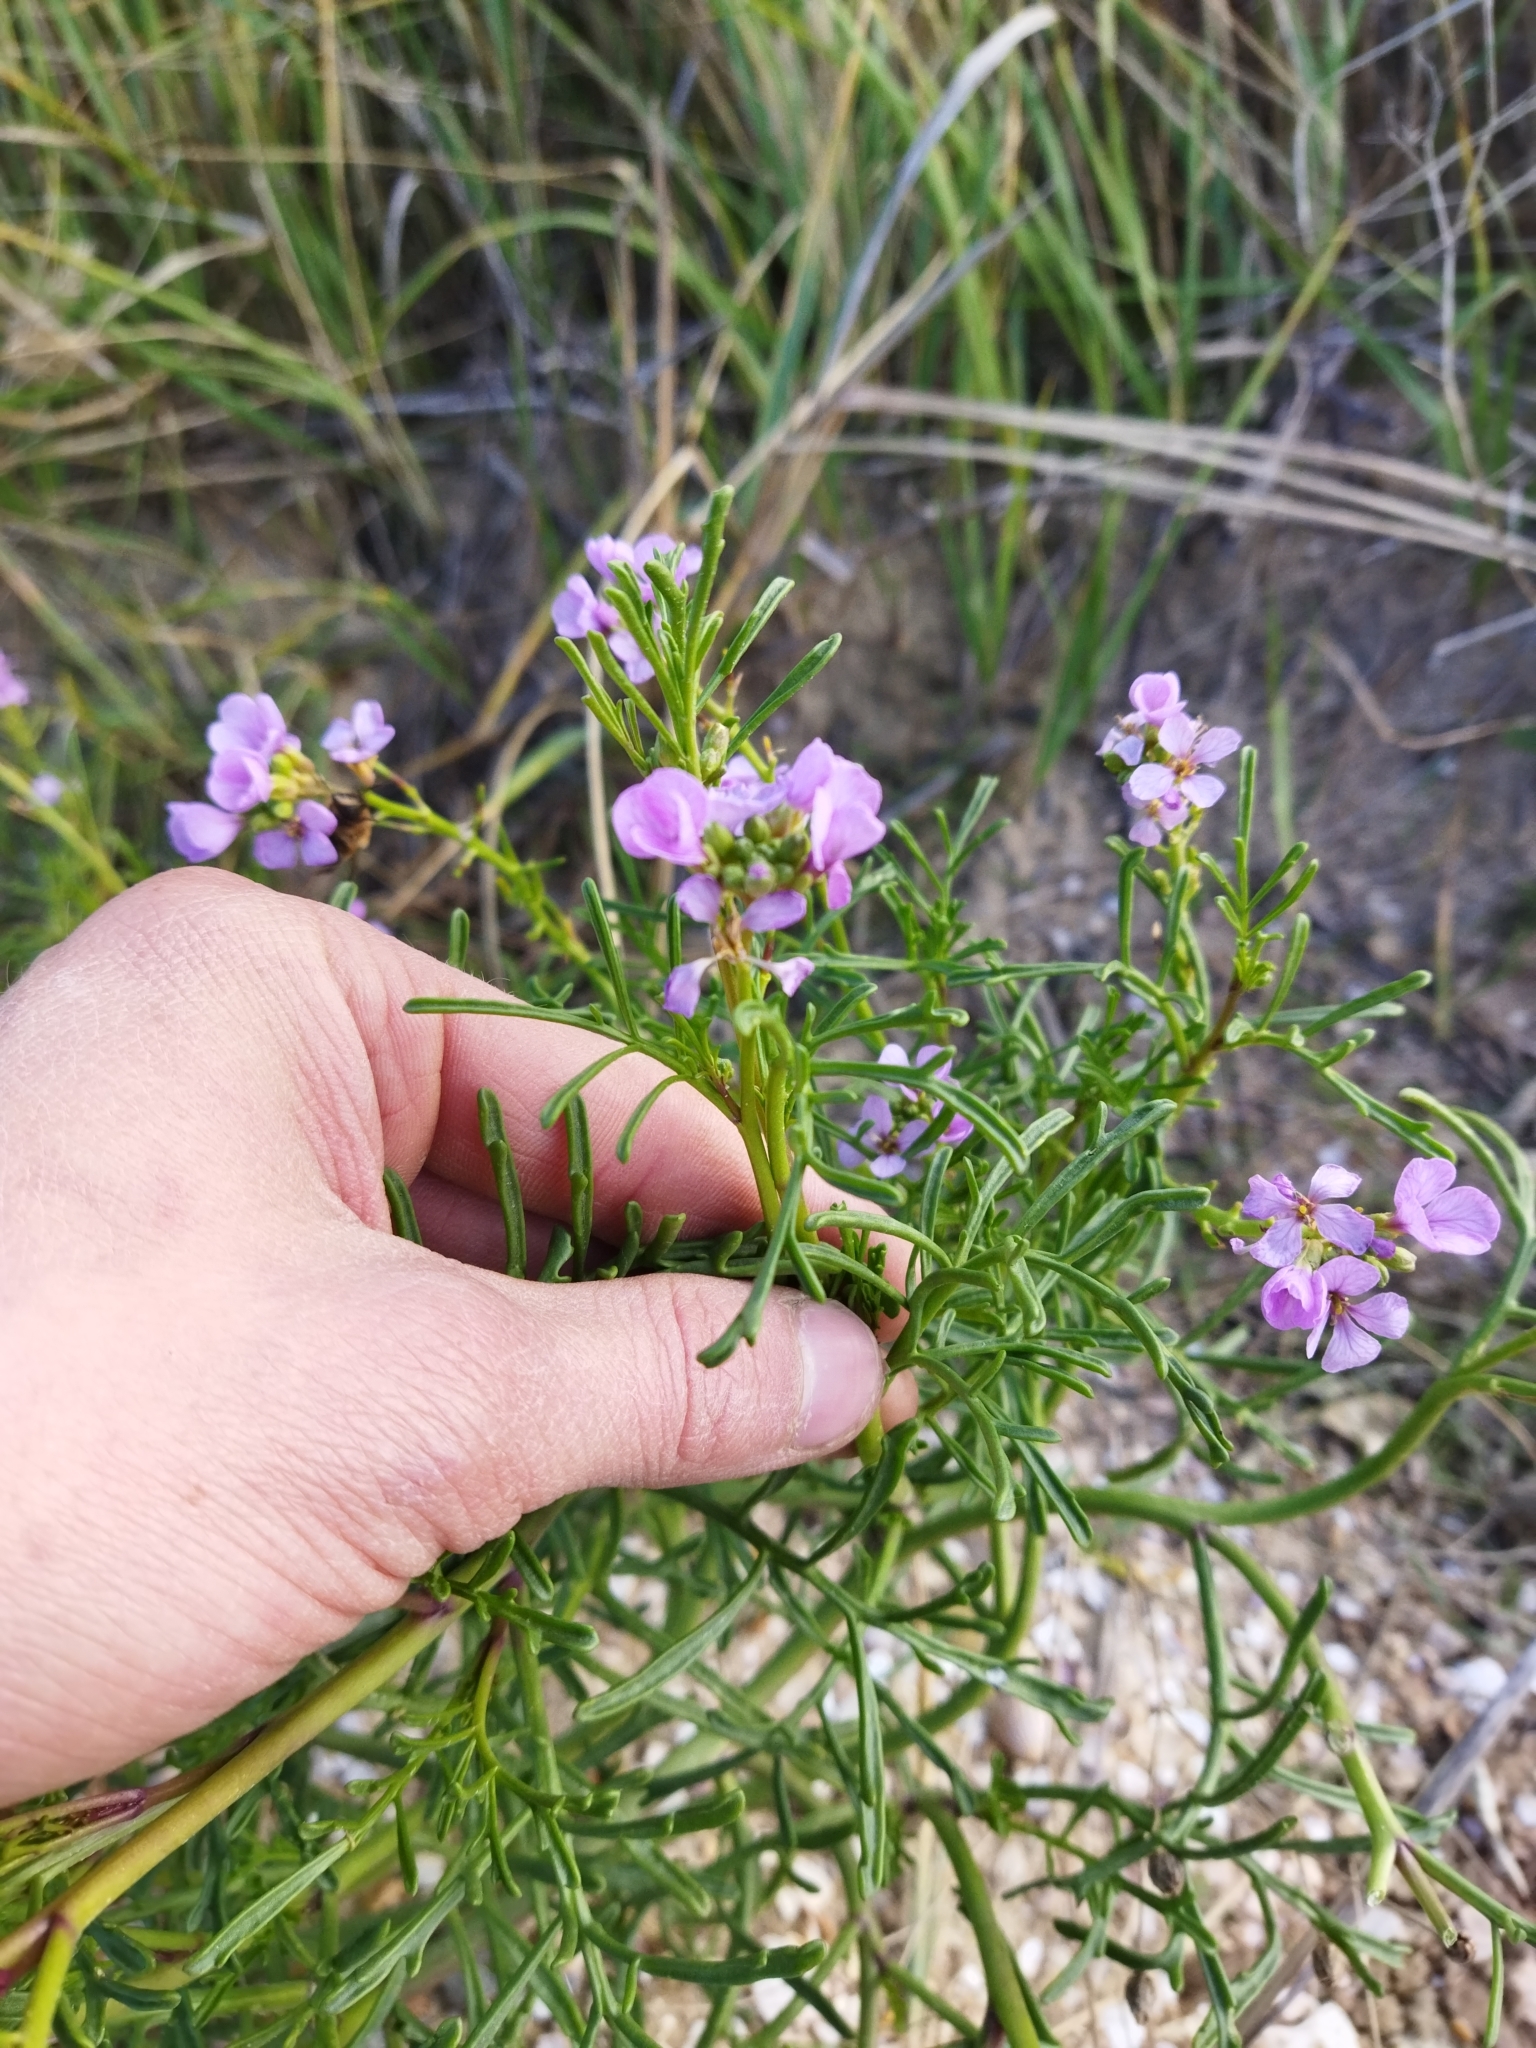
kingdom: Plantae
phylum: Tracheophyta
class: Magnoliopsida
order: Brassicales
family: Brassicaceae
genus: Cakile
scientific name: Cakile maritima
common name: Sea rocket
